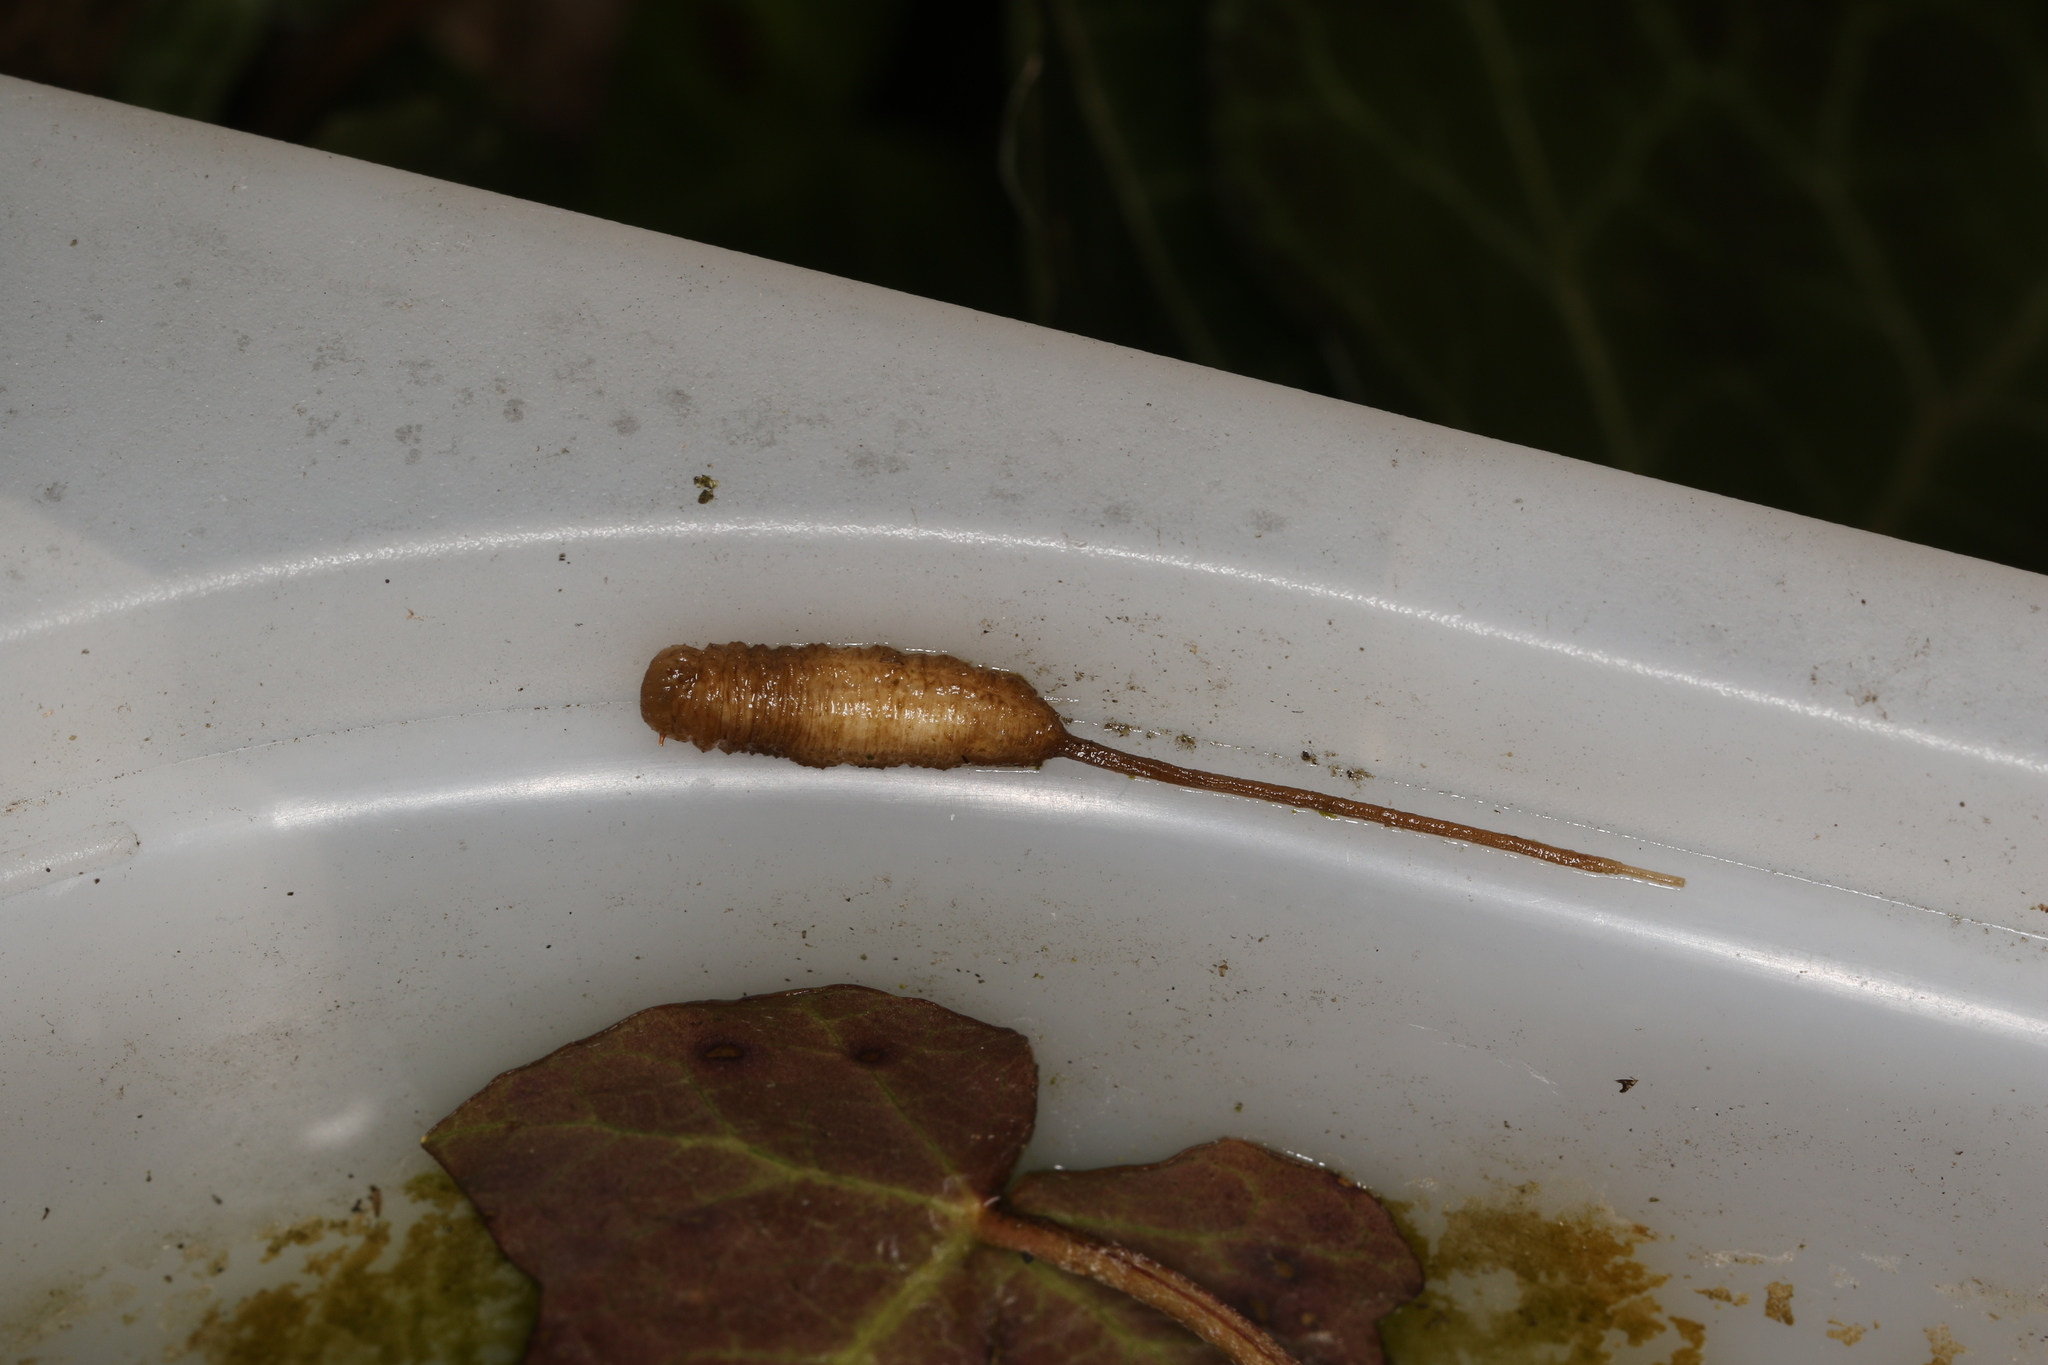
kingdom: Animalia
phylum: Arthropoda
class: Insecta
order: Diptera
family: Syrphidae
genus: Eristalis
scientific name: Eristalis
